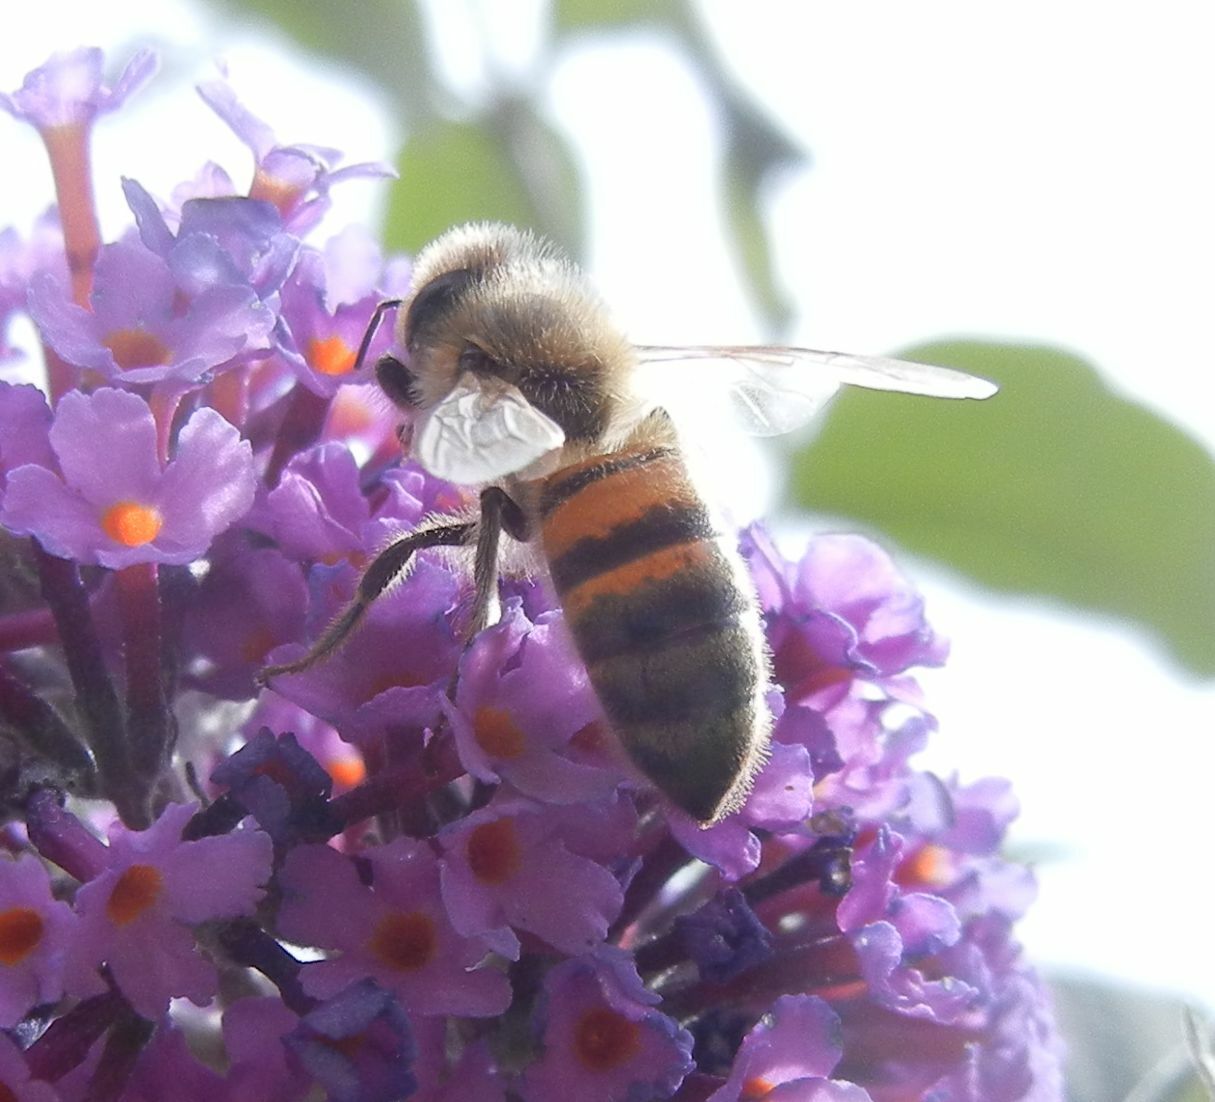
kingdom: Animalia
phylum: Arthropoda
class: Insecta
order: Hymenoptera
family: Apidae
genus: Apis
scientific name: Apis mellifera
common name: Honey bee
